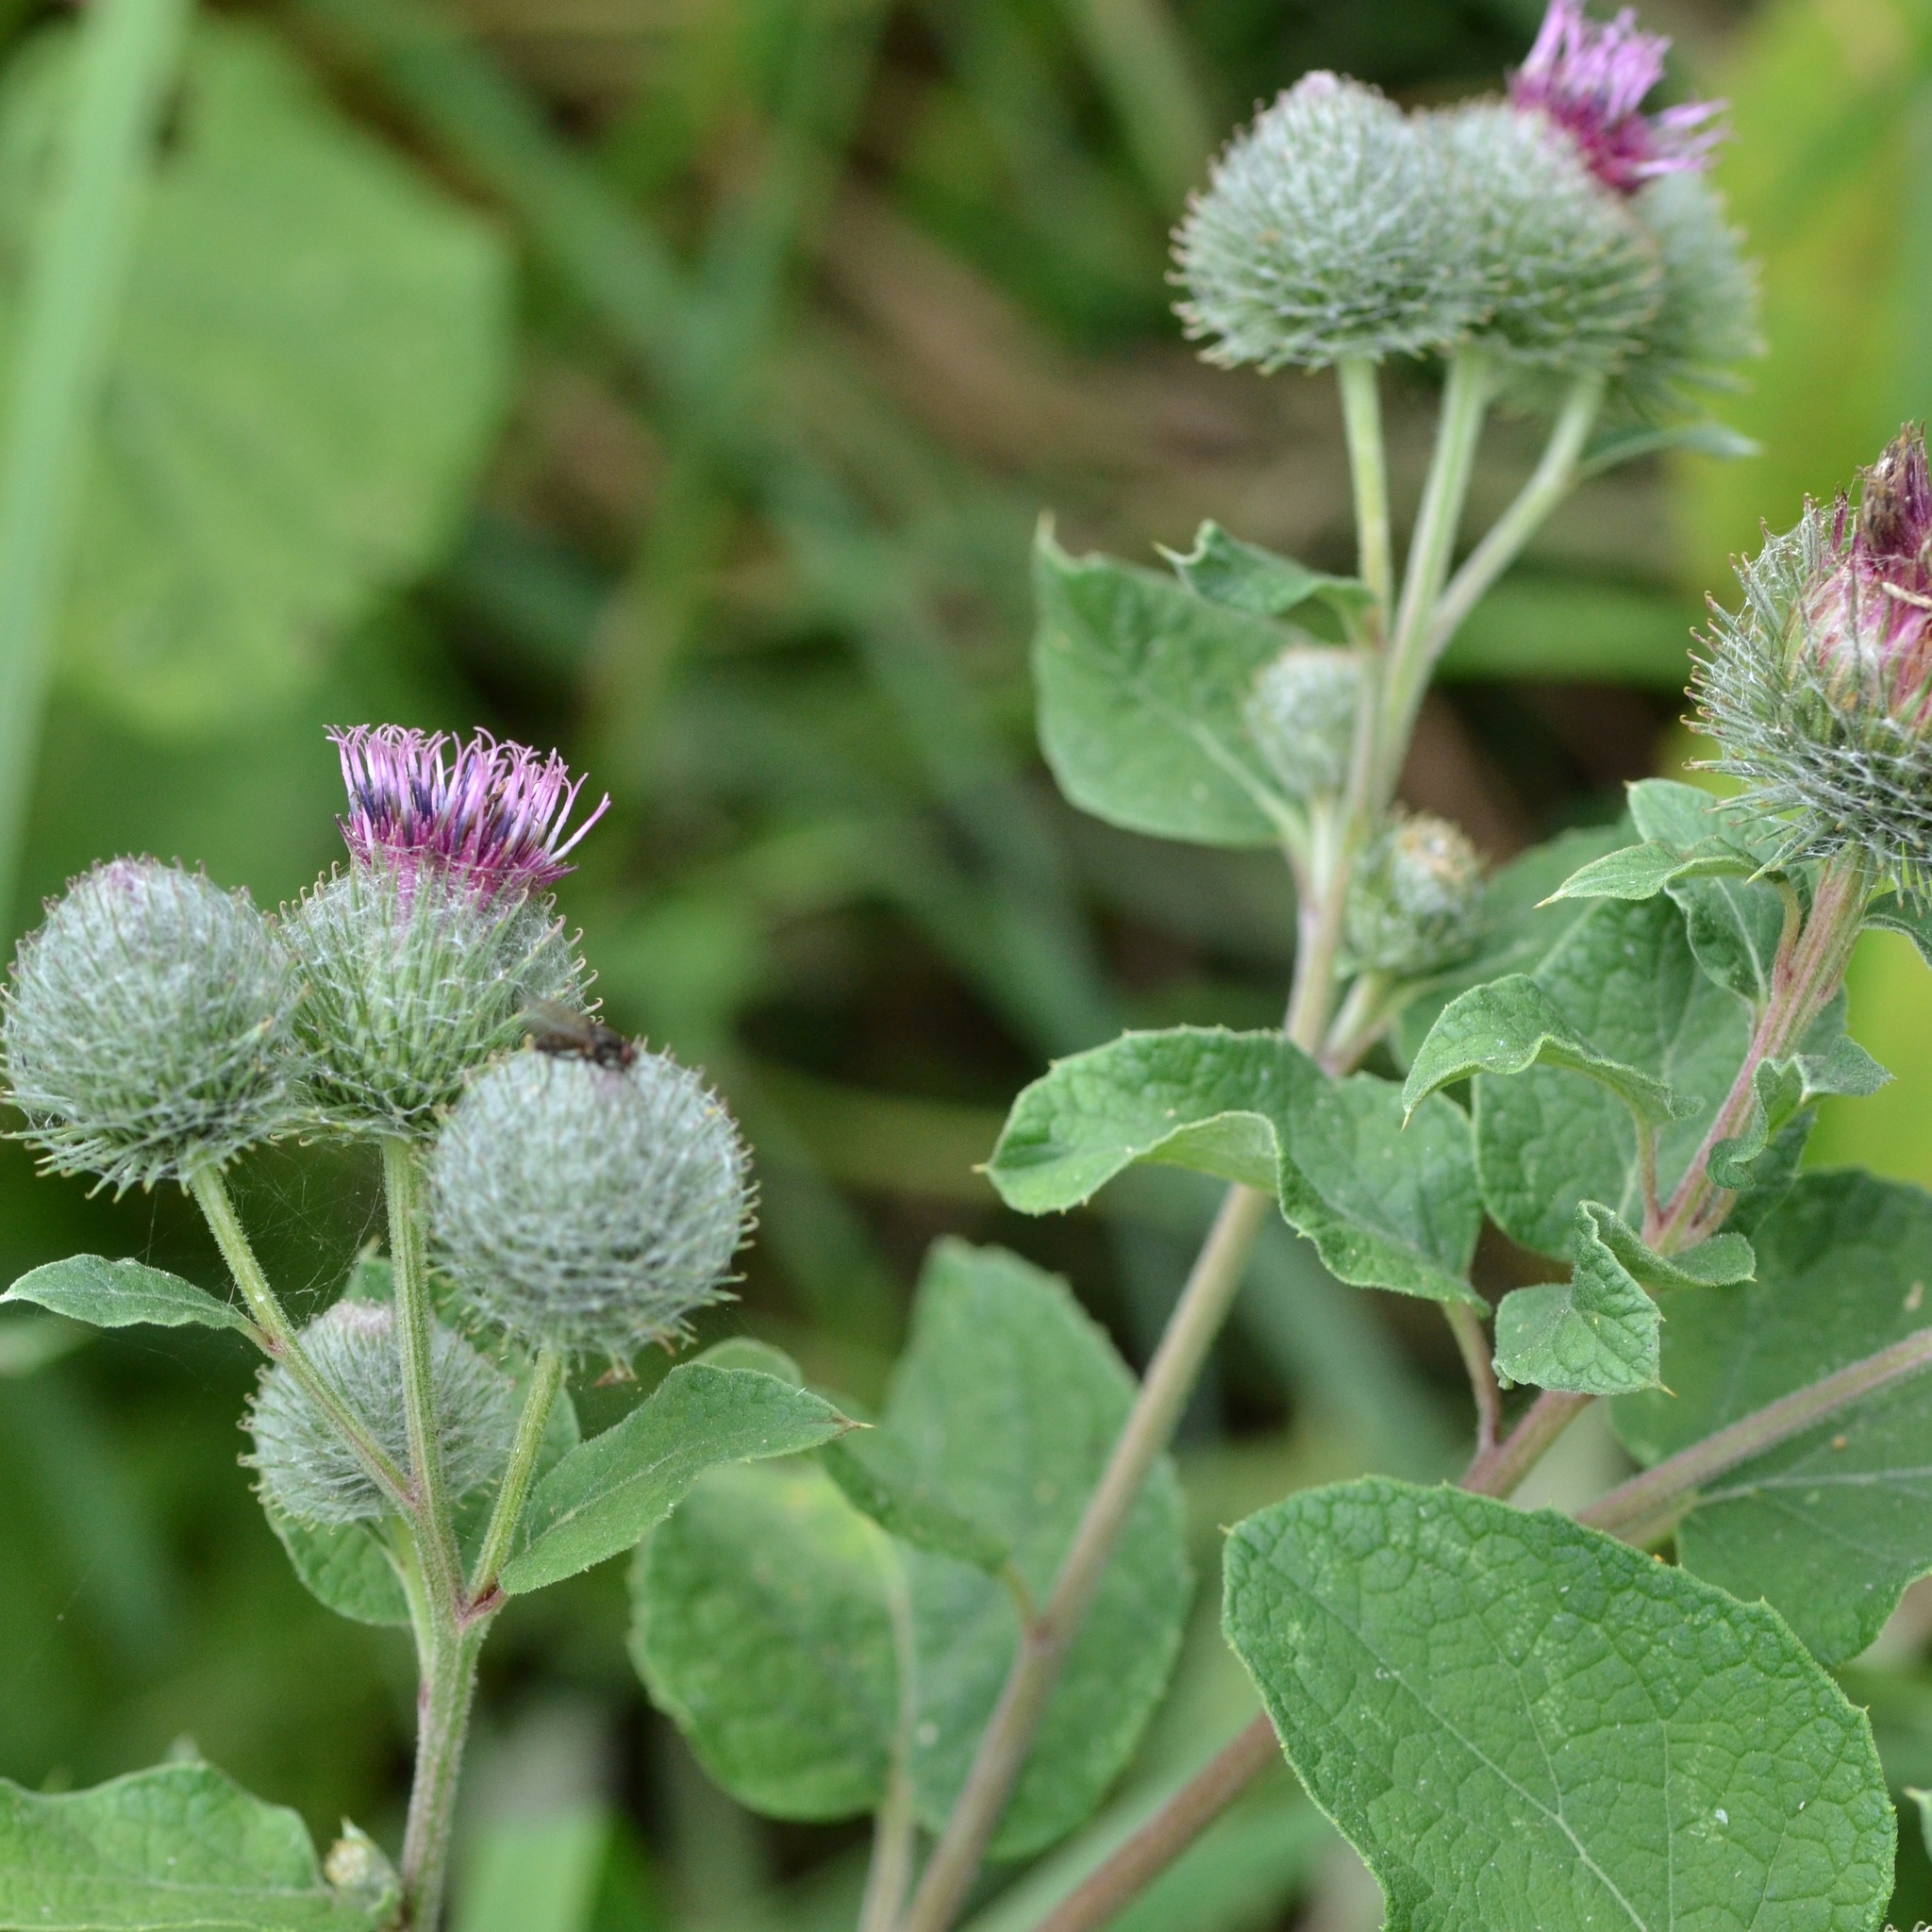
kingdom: Plantae
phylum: Tracheophyta
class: Magnoliopsida
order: Asterales
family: Asteraceae
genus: Arctium
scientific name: Arctium tomentosum
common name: Woolly burdock
